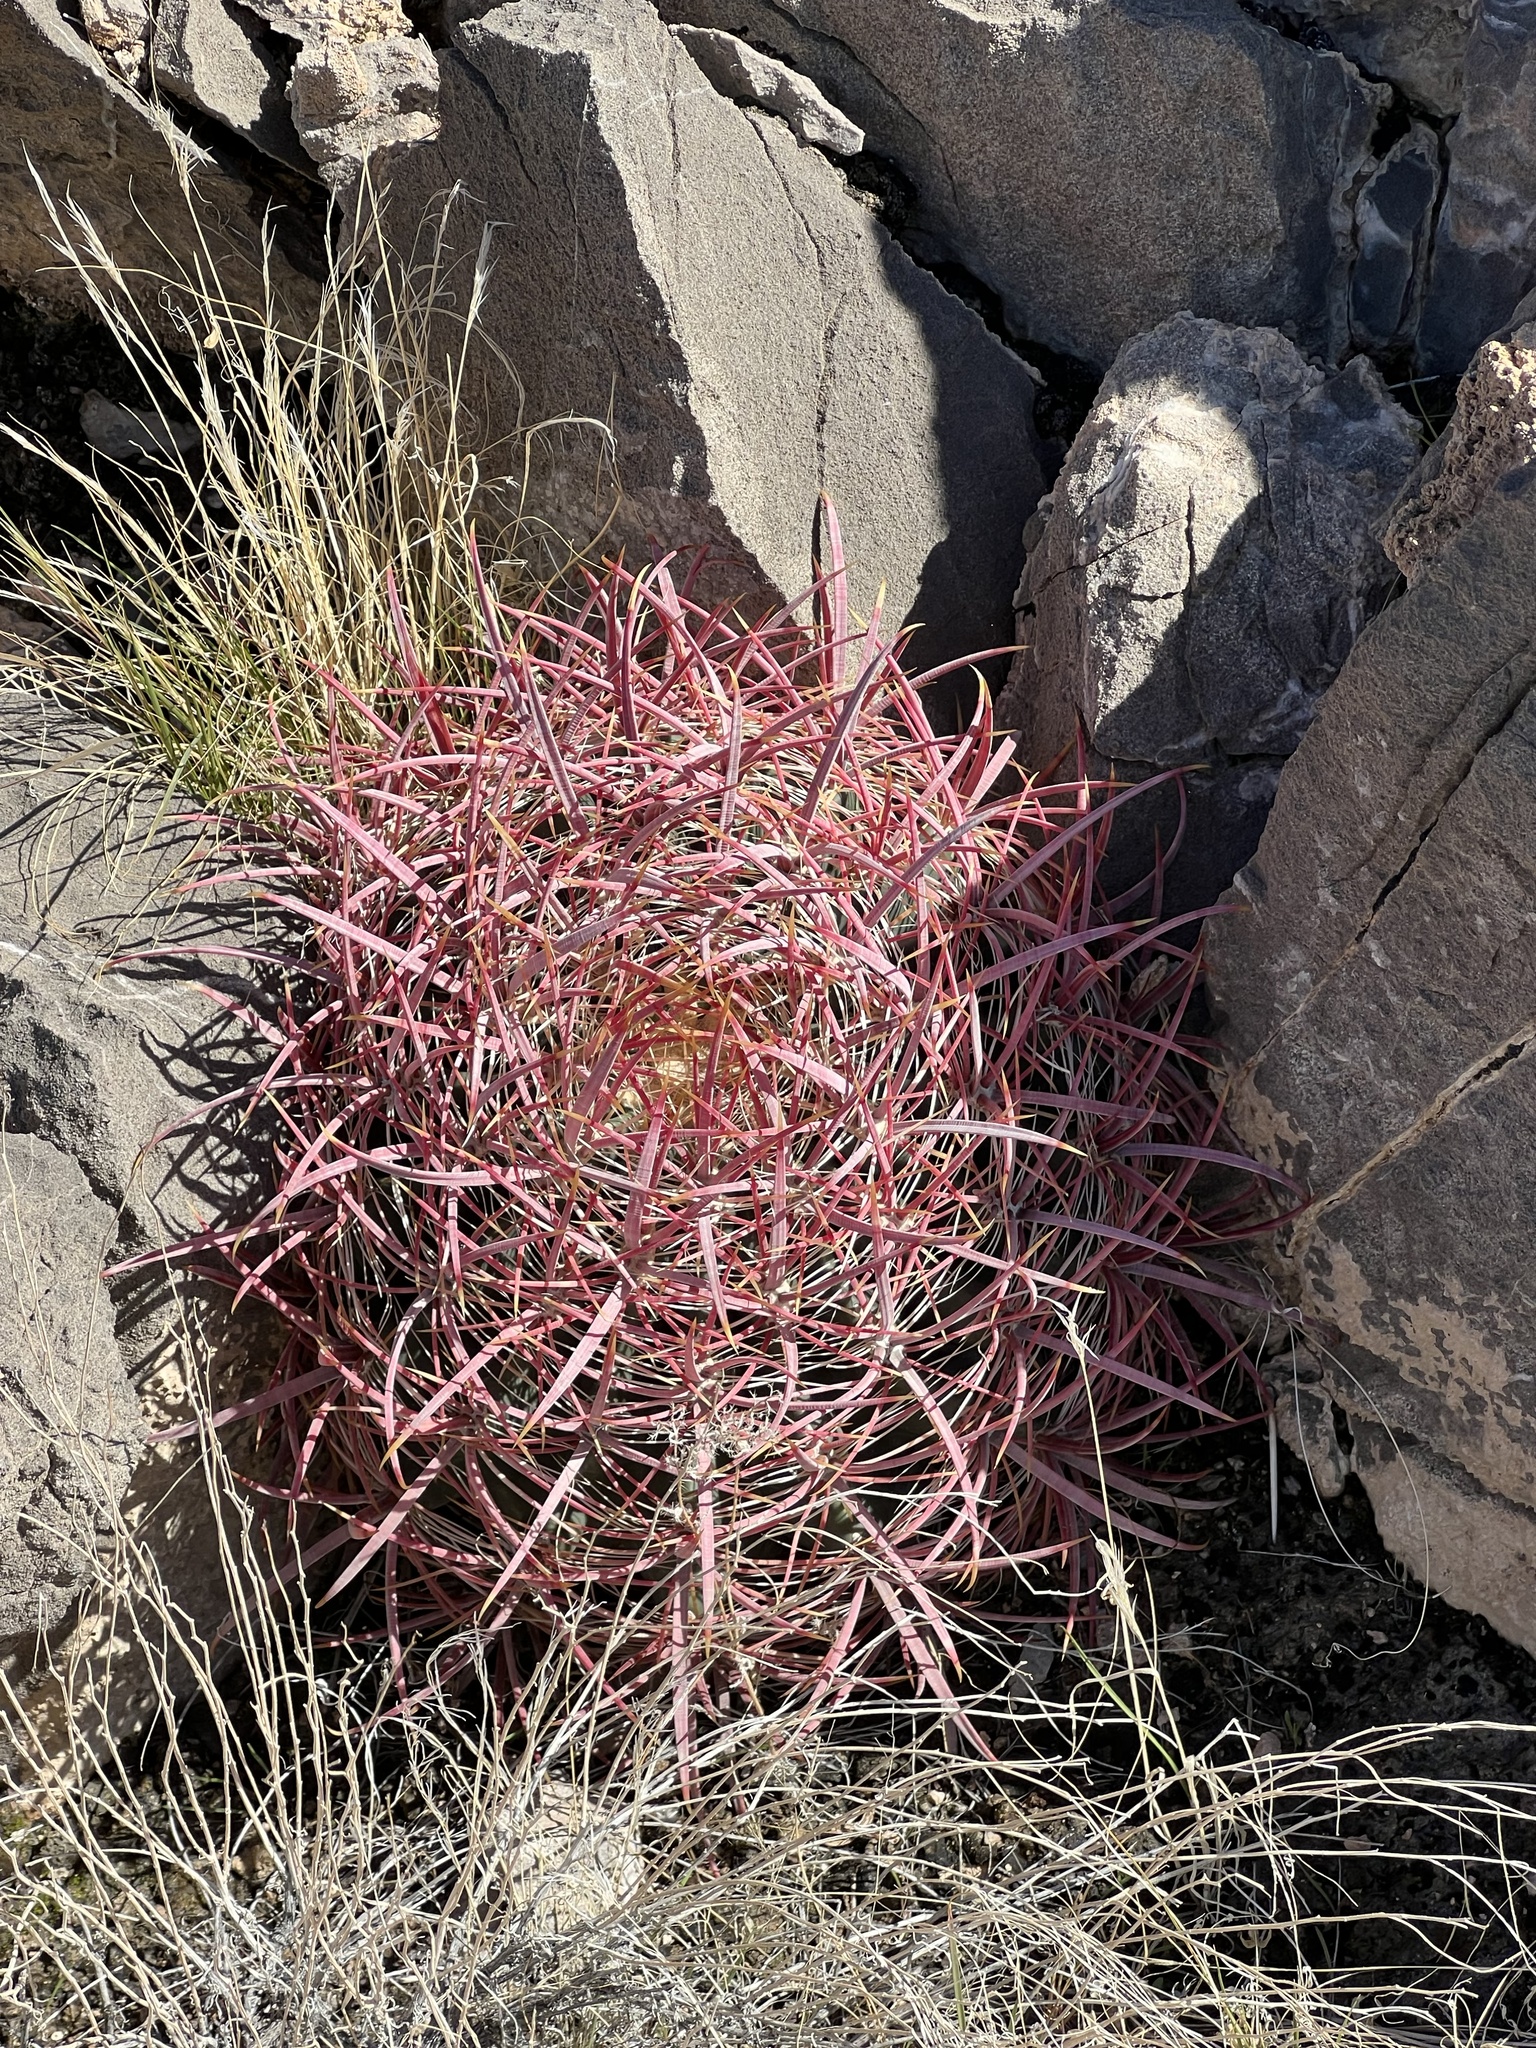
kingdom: Plantae
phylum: Tracheophyta
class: Magnoliopsida
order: Caryophyllales
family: Cactaceae
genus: Ferocactus
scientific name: Ferocactus cylindraceus
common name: California barrel cactus
